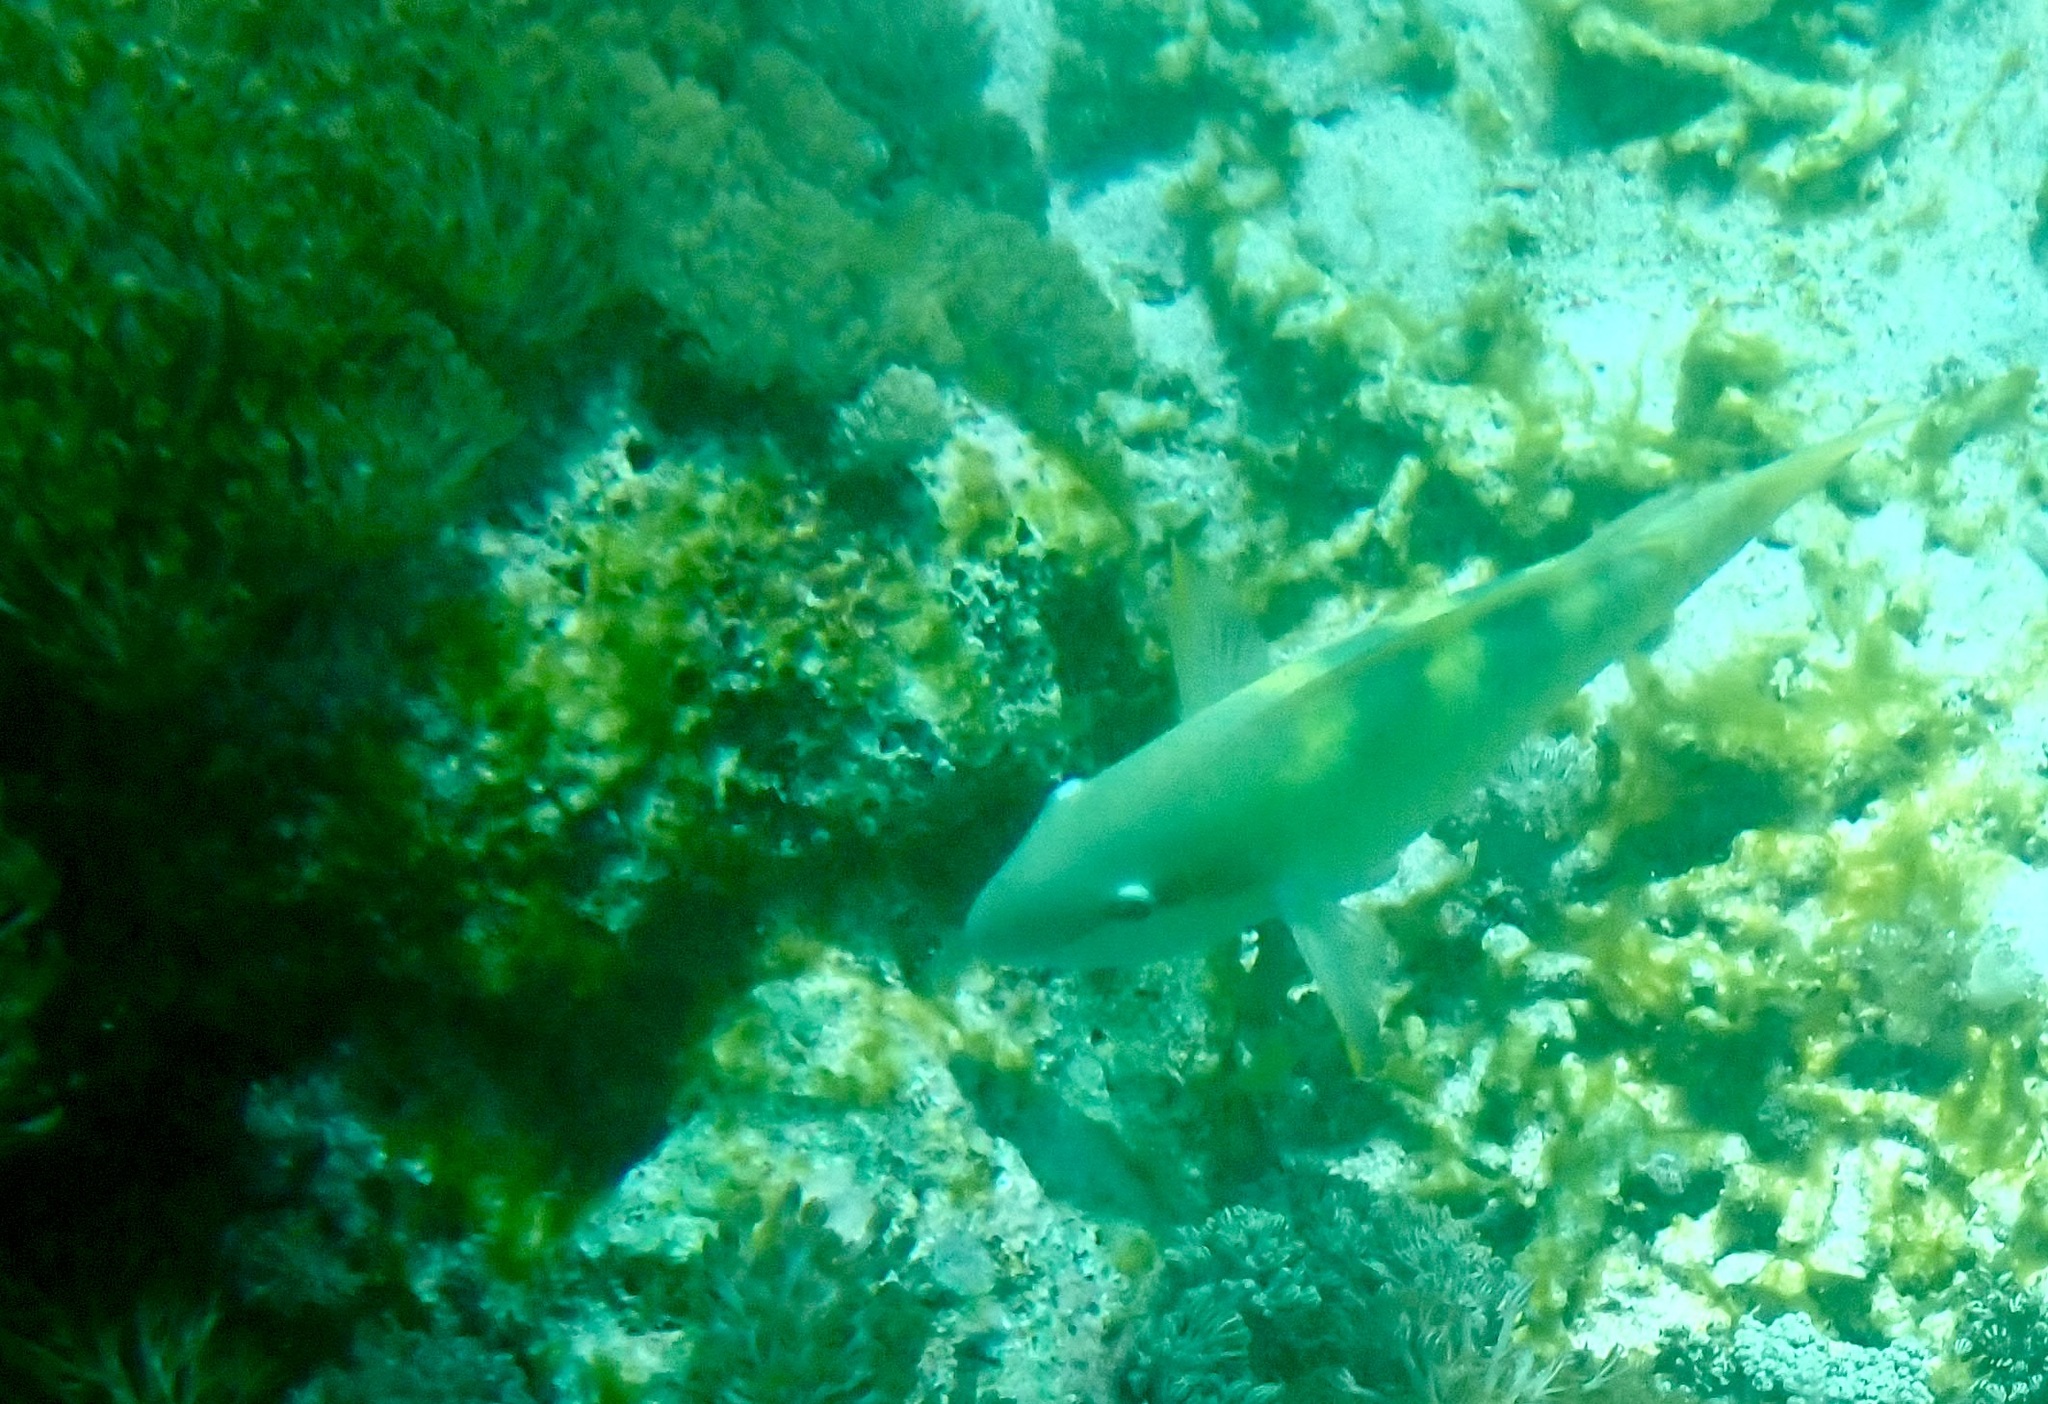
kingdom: Animalia
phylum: Chordata
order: Perciformes
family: Scaridae
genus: Scarus
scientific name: Scarus dimidiatus
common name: Yellowbarred parrotfish
